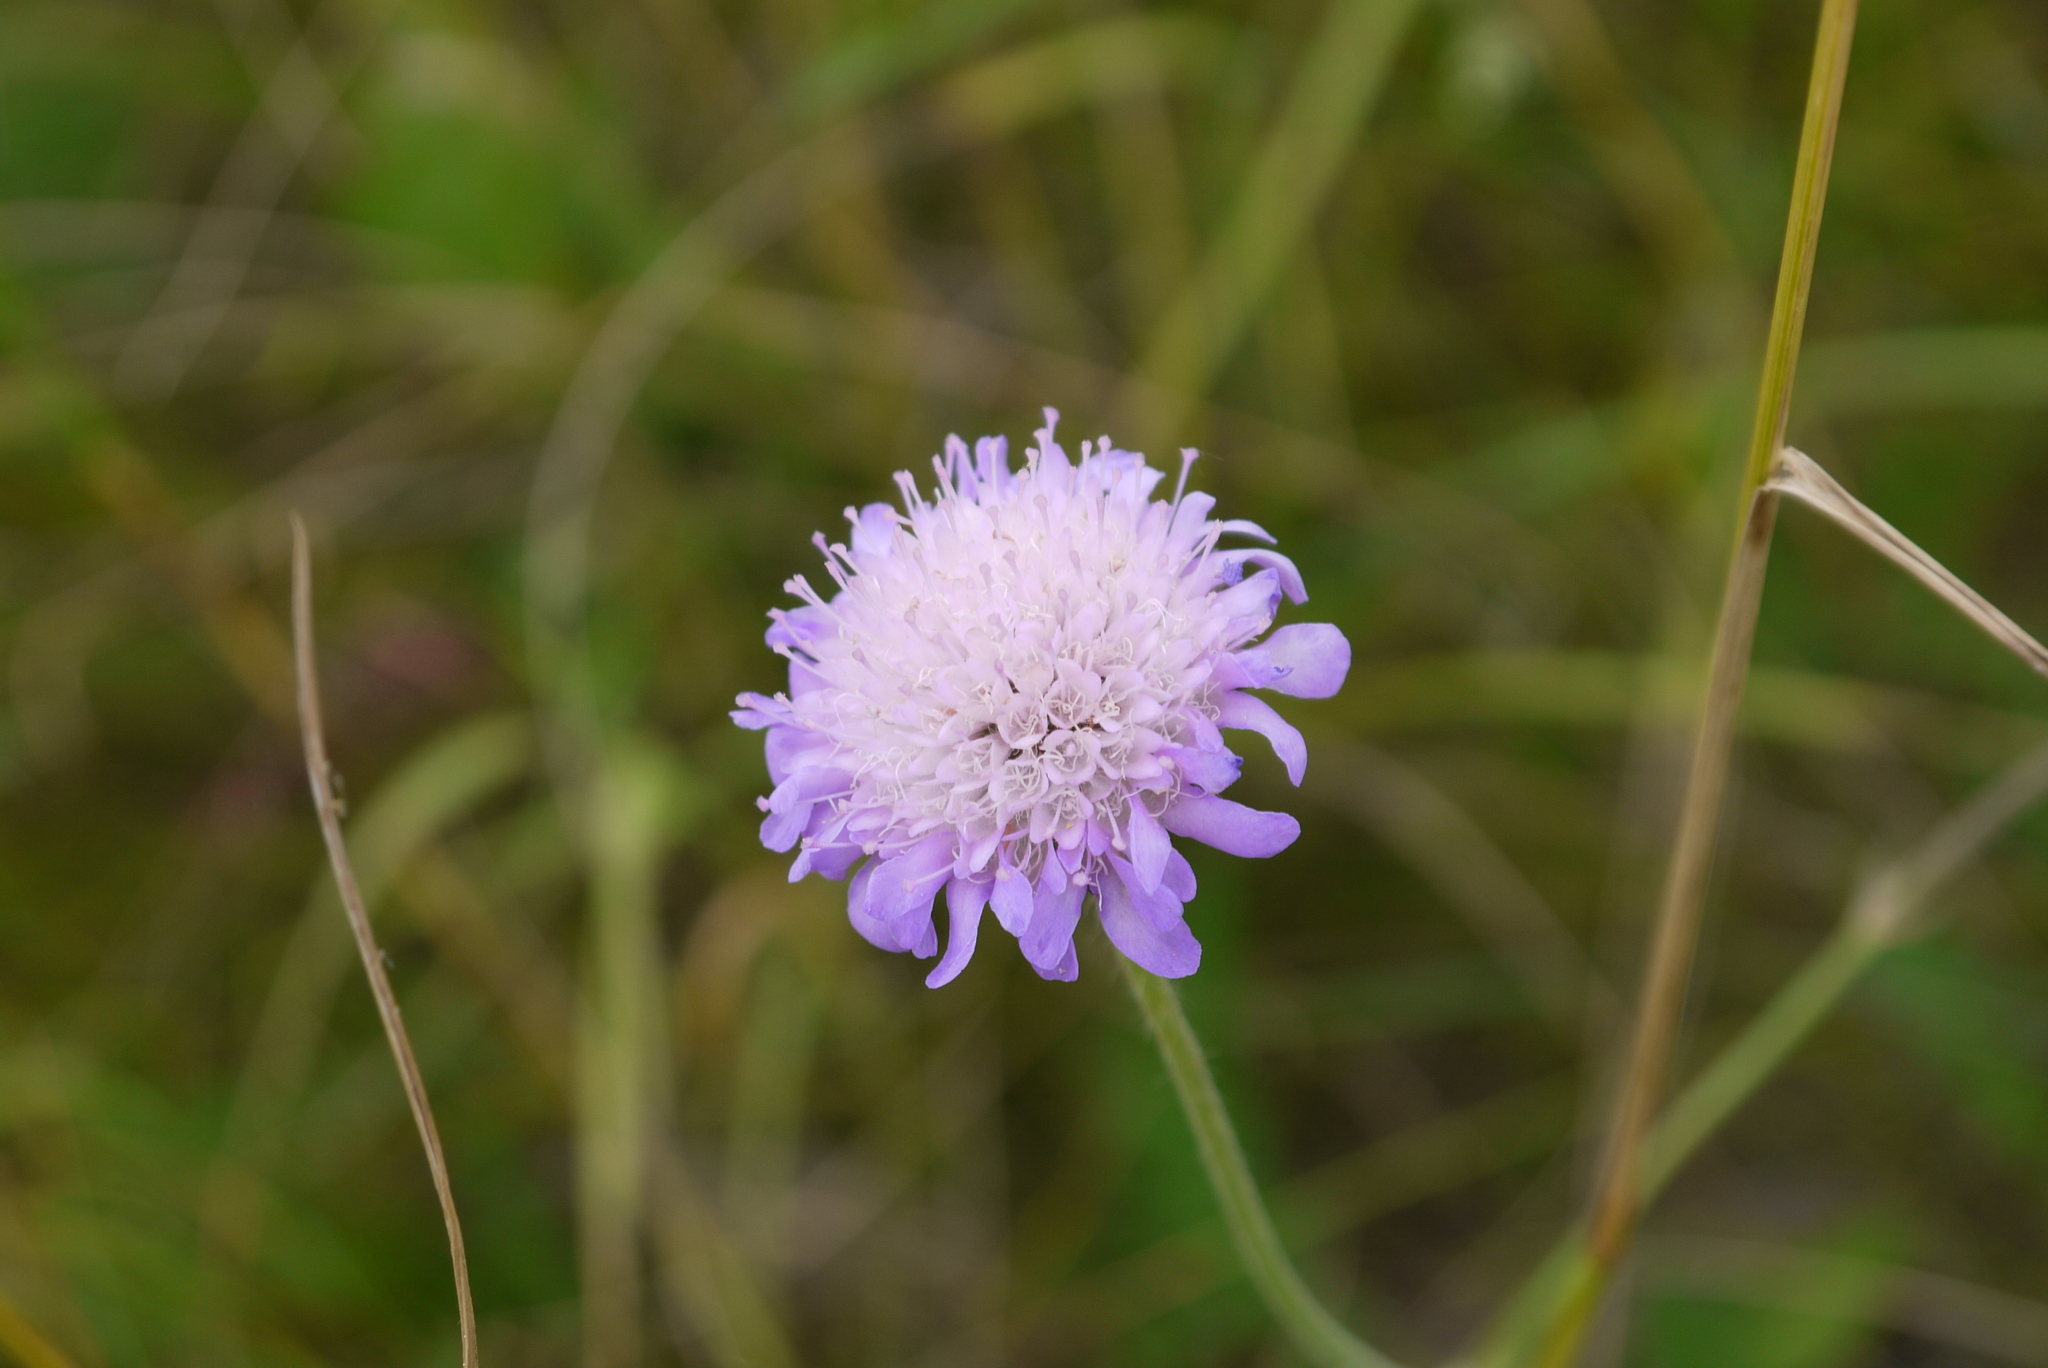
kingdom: Plantae
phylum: Tracheophyta
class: Magnoliopsida
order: Dipsacales
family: Caprifoliaceae
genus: Knautia
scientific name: Knautia arvensis
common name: Field scabiosa
